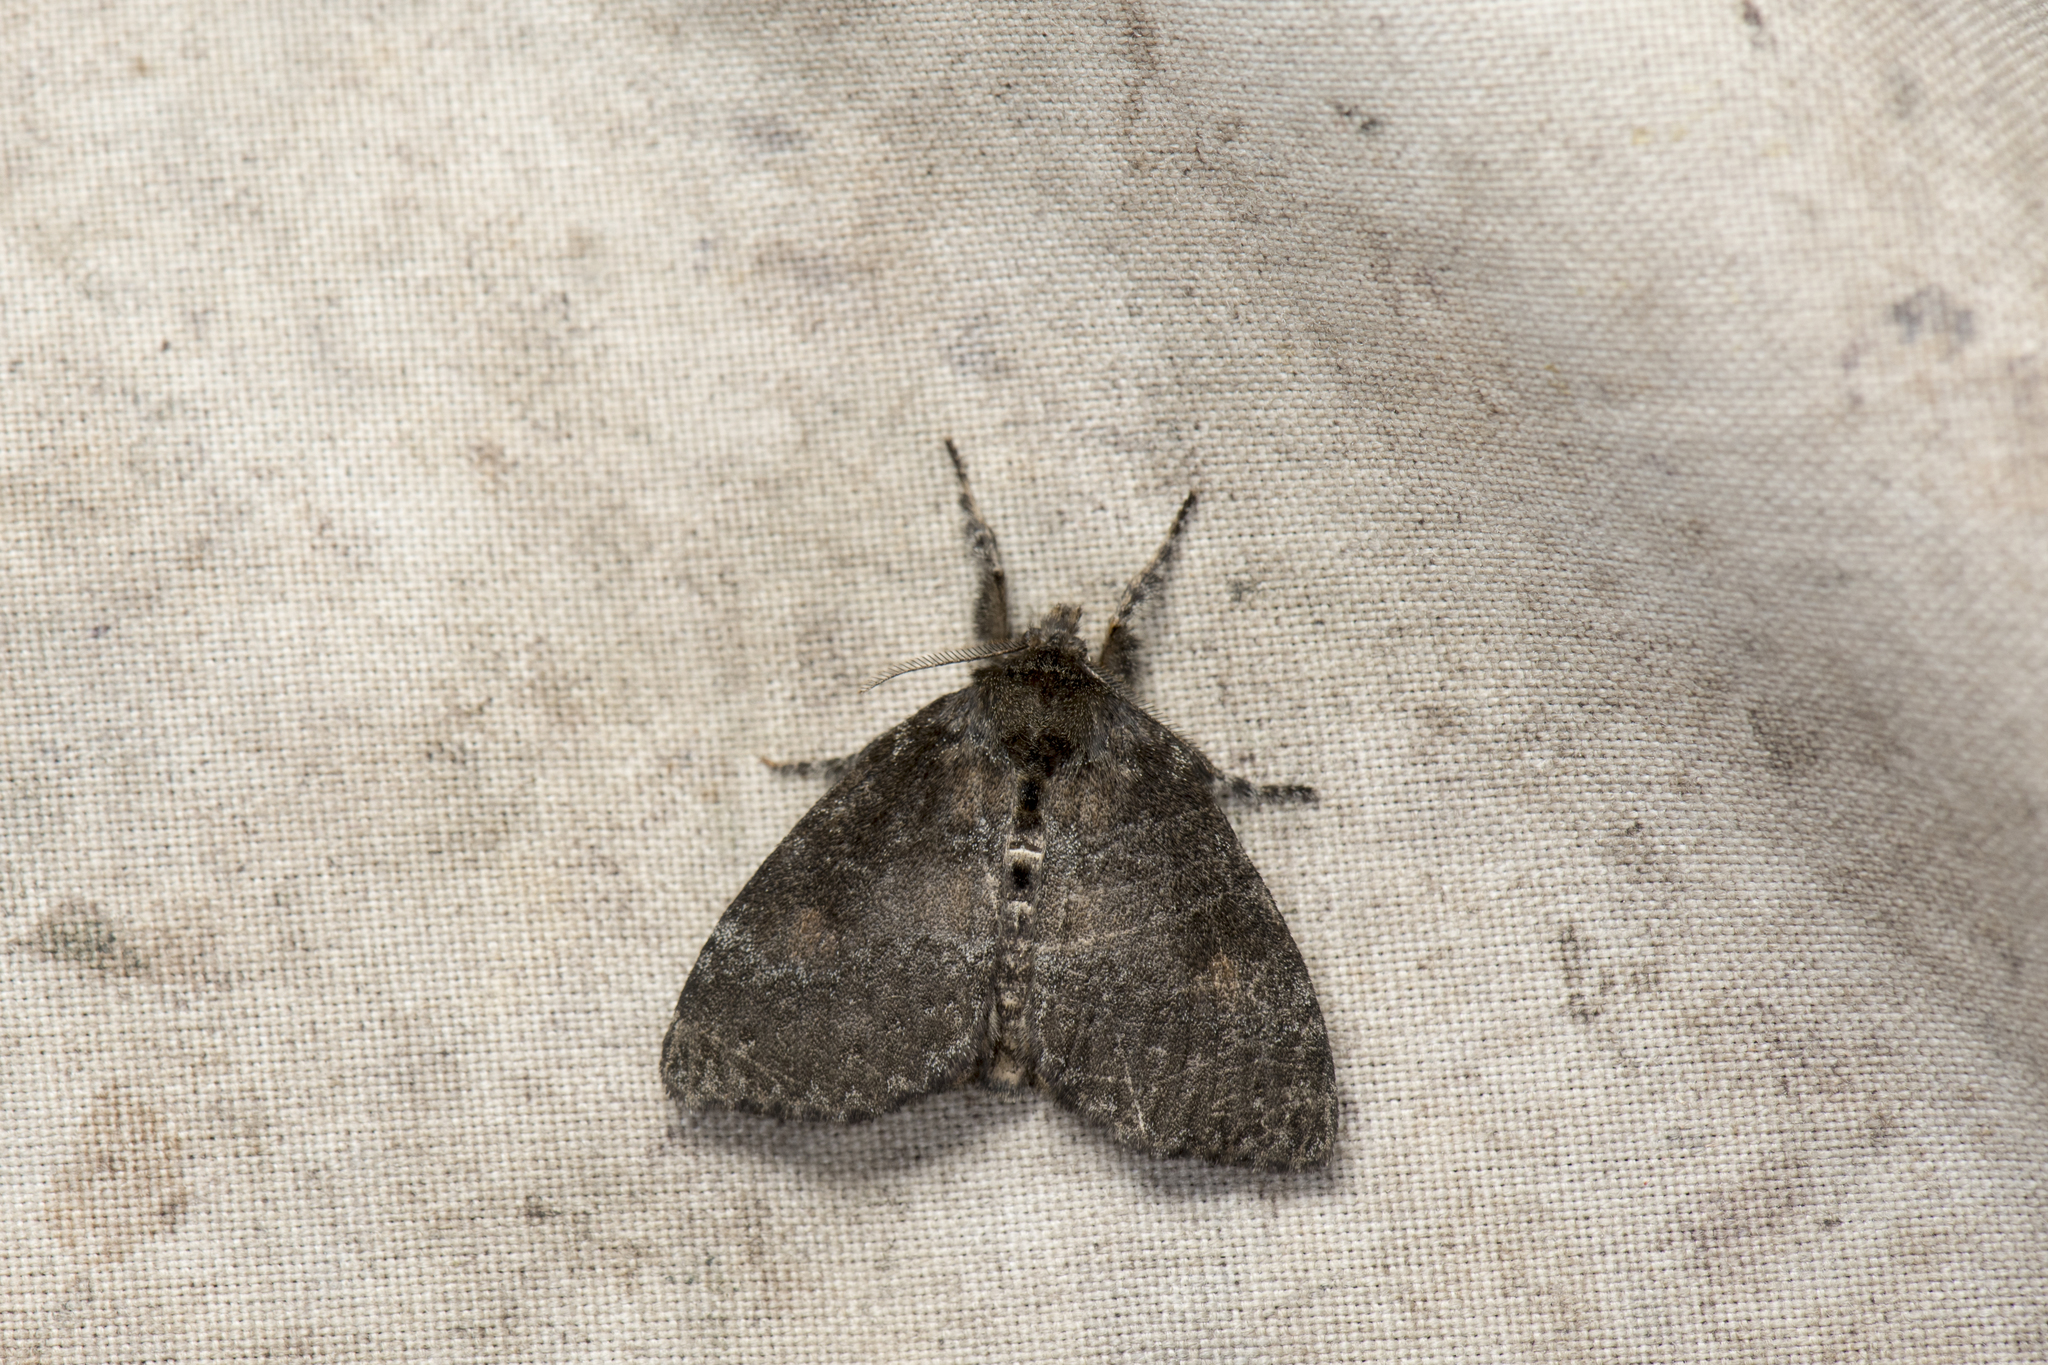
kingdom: Animalia
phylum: Arthropoda
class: Insecta
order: Lepidoptera
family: Erebidae
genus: Ilema
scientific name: Ilema kosemponica
